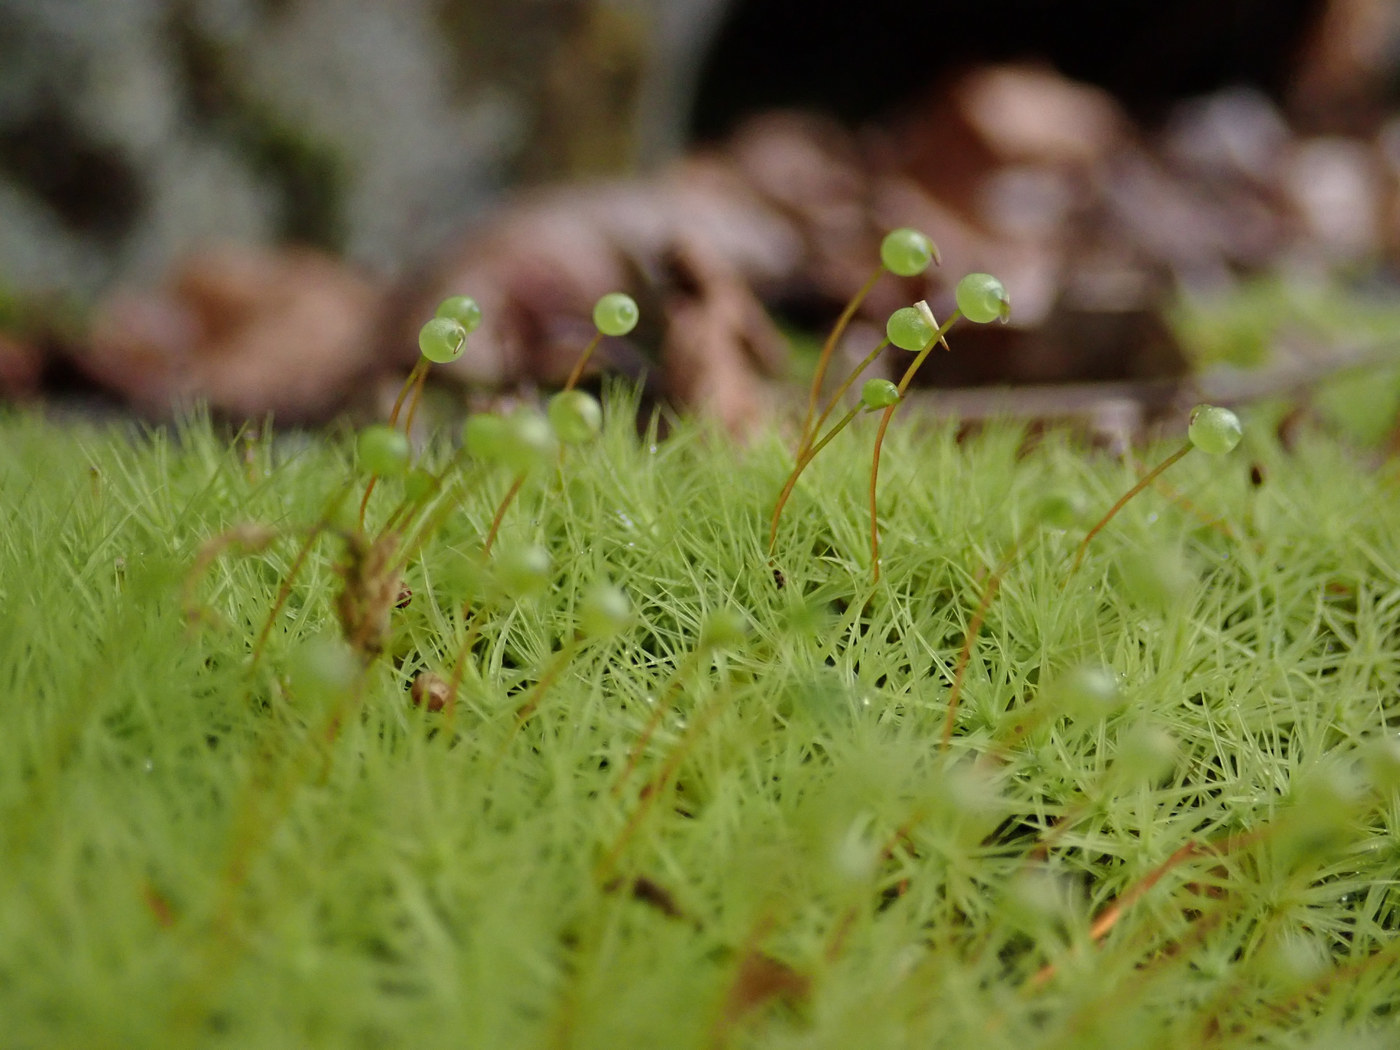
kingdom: Plantae
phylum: Bryophyta
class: Bryopsida
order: Bartramiales
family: Bartramiaceae
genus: Bartramia
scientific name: Bartramia ithyphylla
